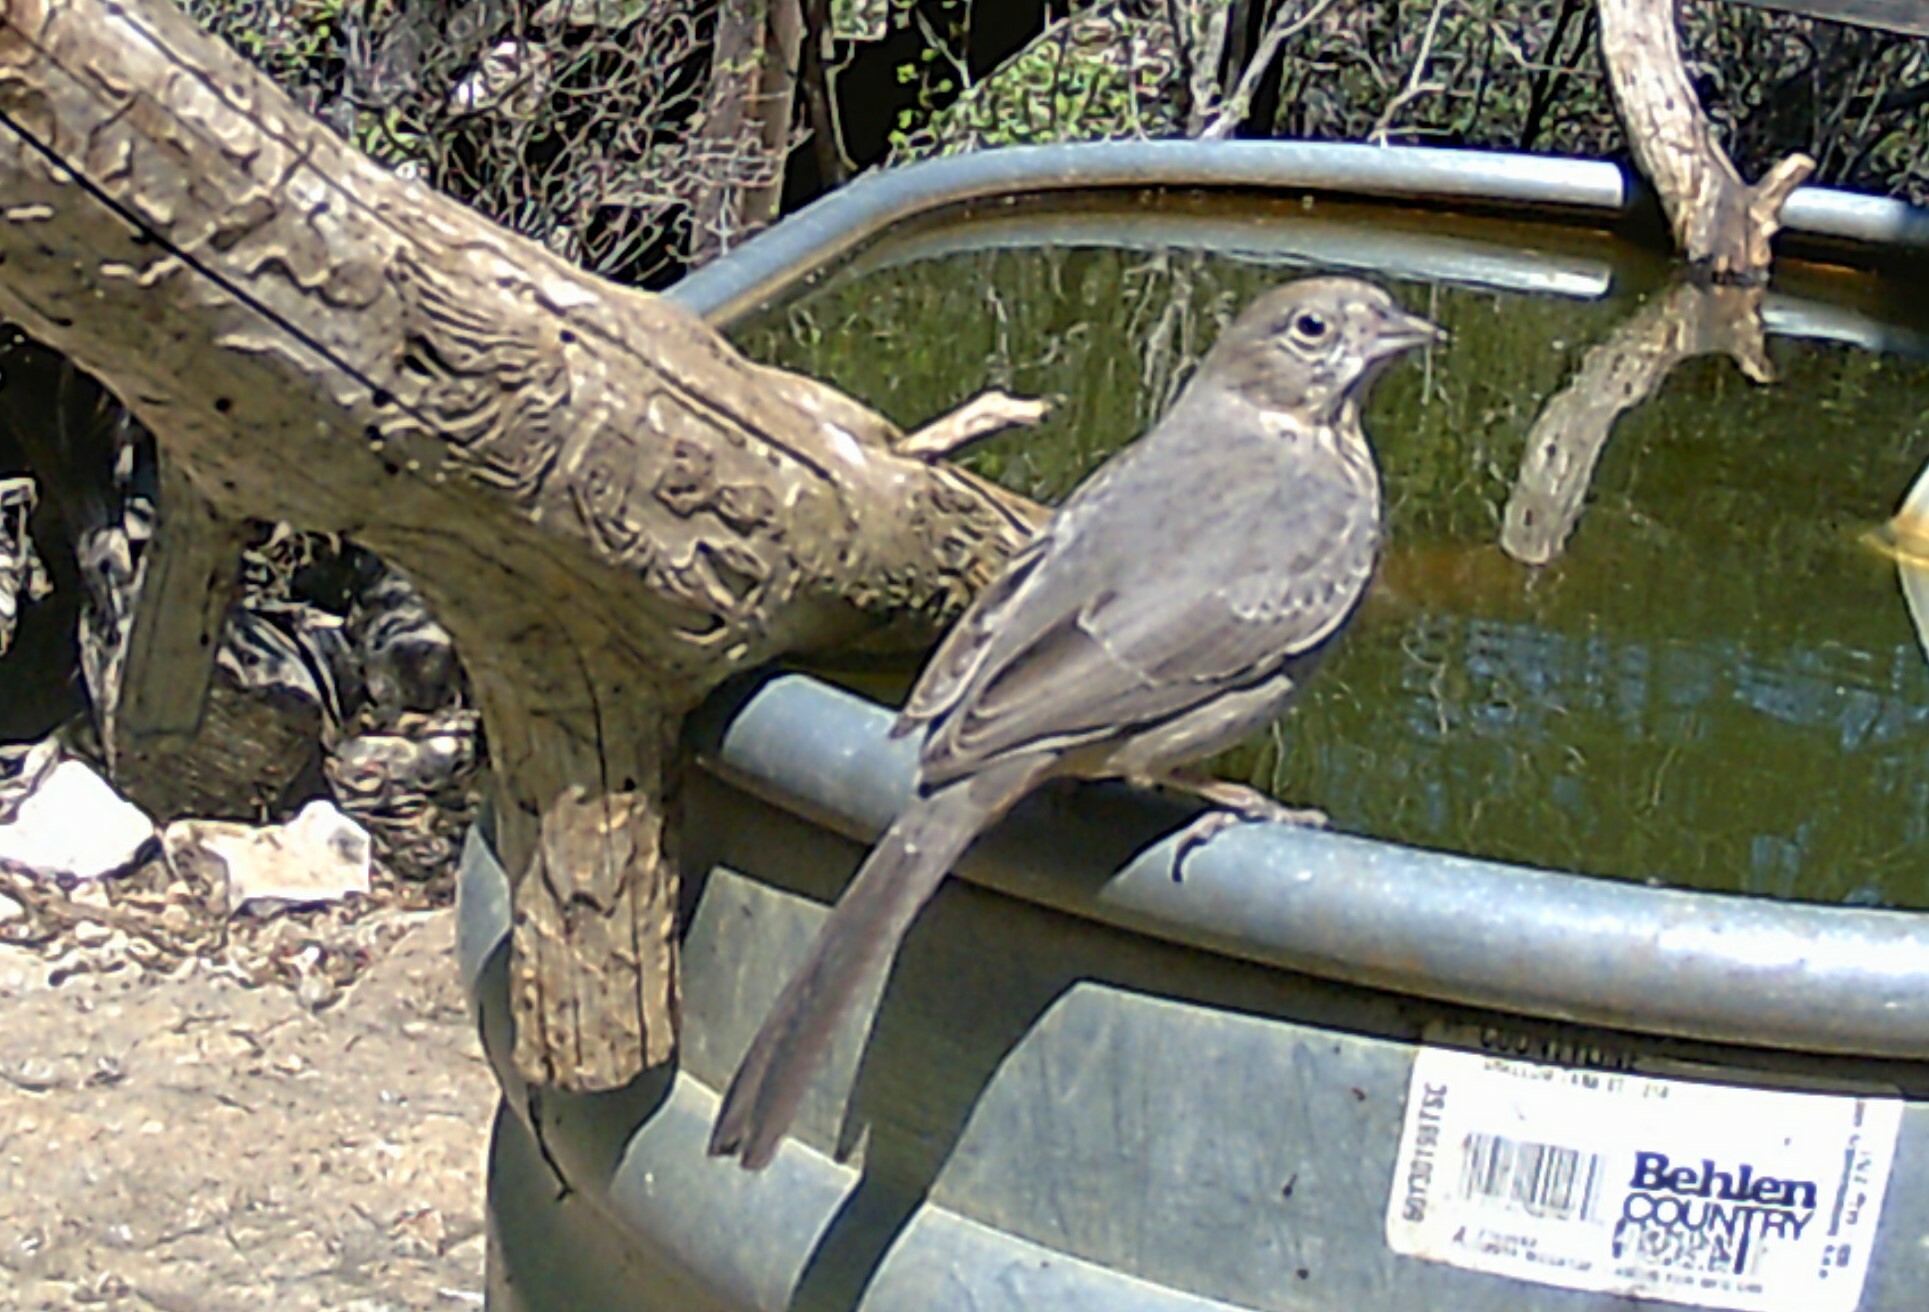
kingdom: Animalia
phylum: Chordata
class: Aves
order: Passeriformes
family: Passerellidae
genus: Melozone
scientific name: Melozone fusca
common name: Canyon towhee
